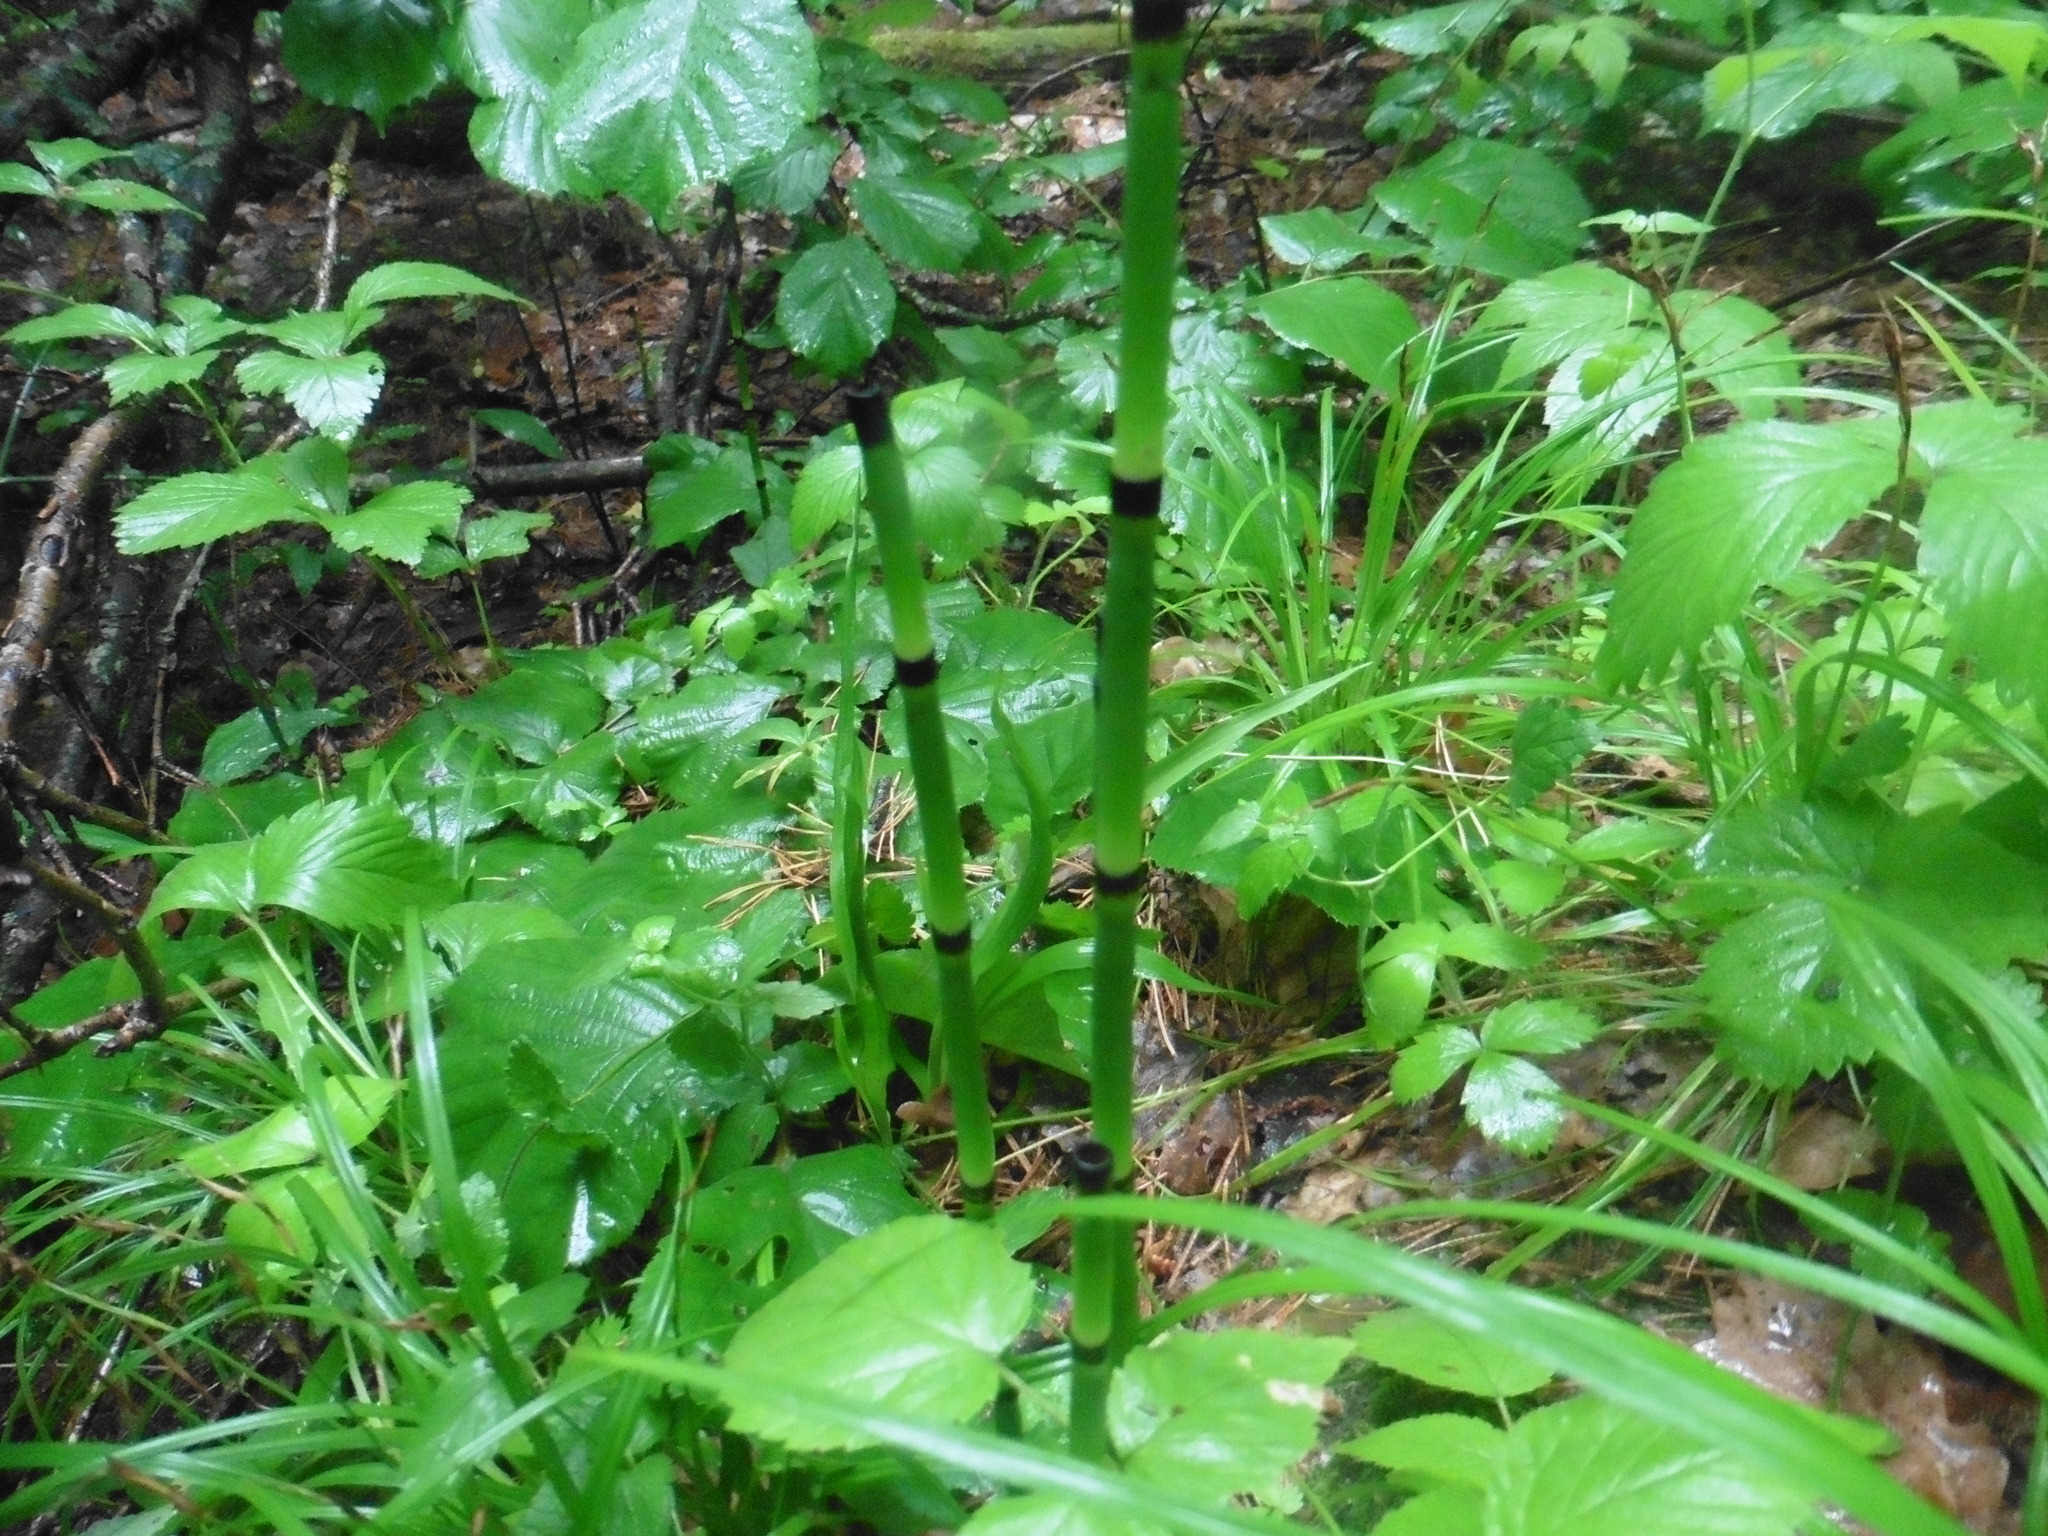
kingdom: Plantae
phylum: Tracheophyta
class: Polypodiopsida
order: Equisetales
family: Equisetaceae
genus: Equisetum
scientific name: Equisetum hyemale
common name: Rough horsetail
